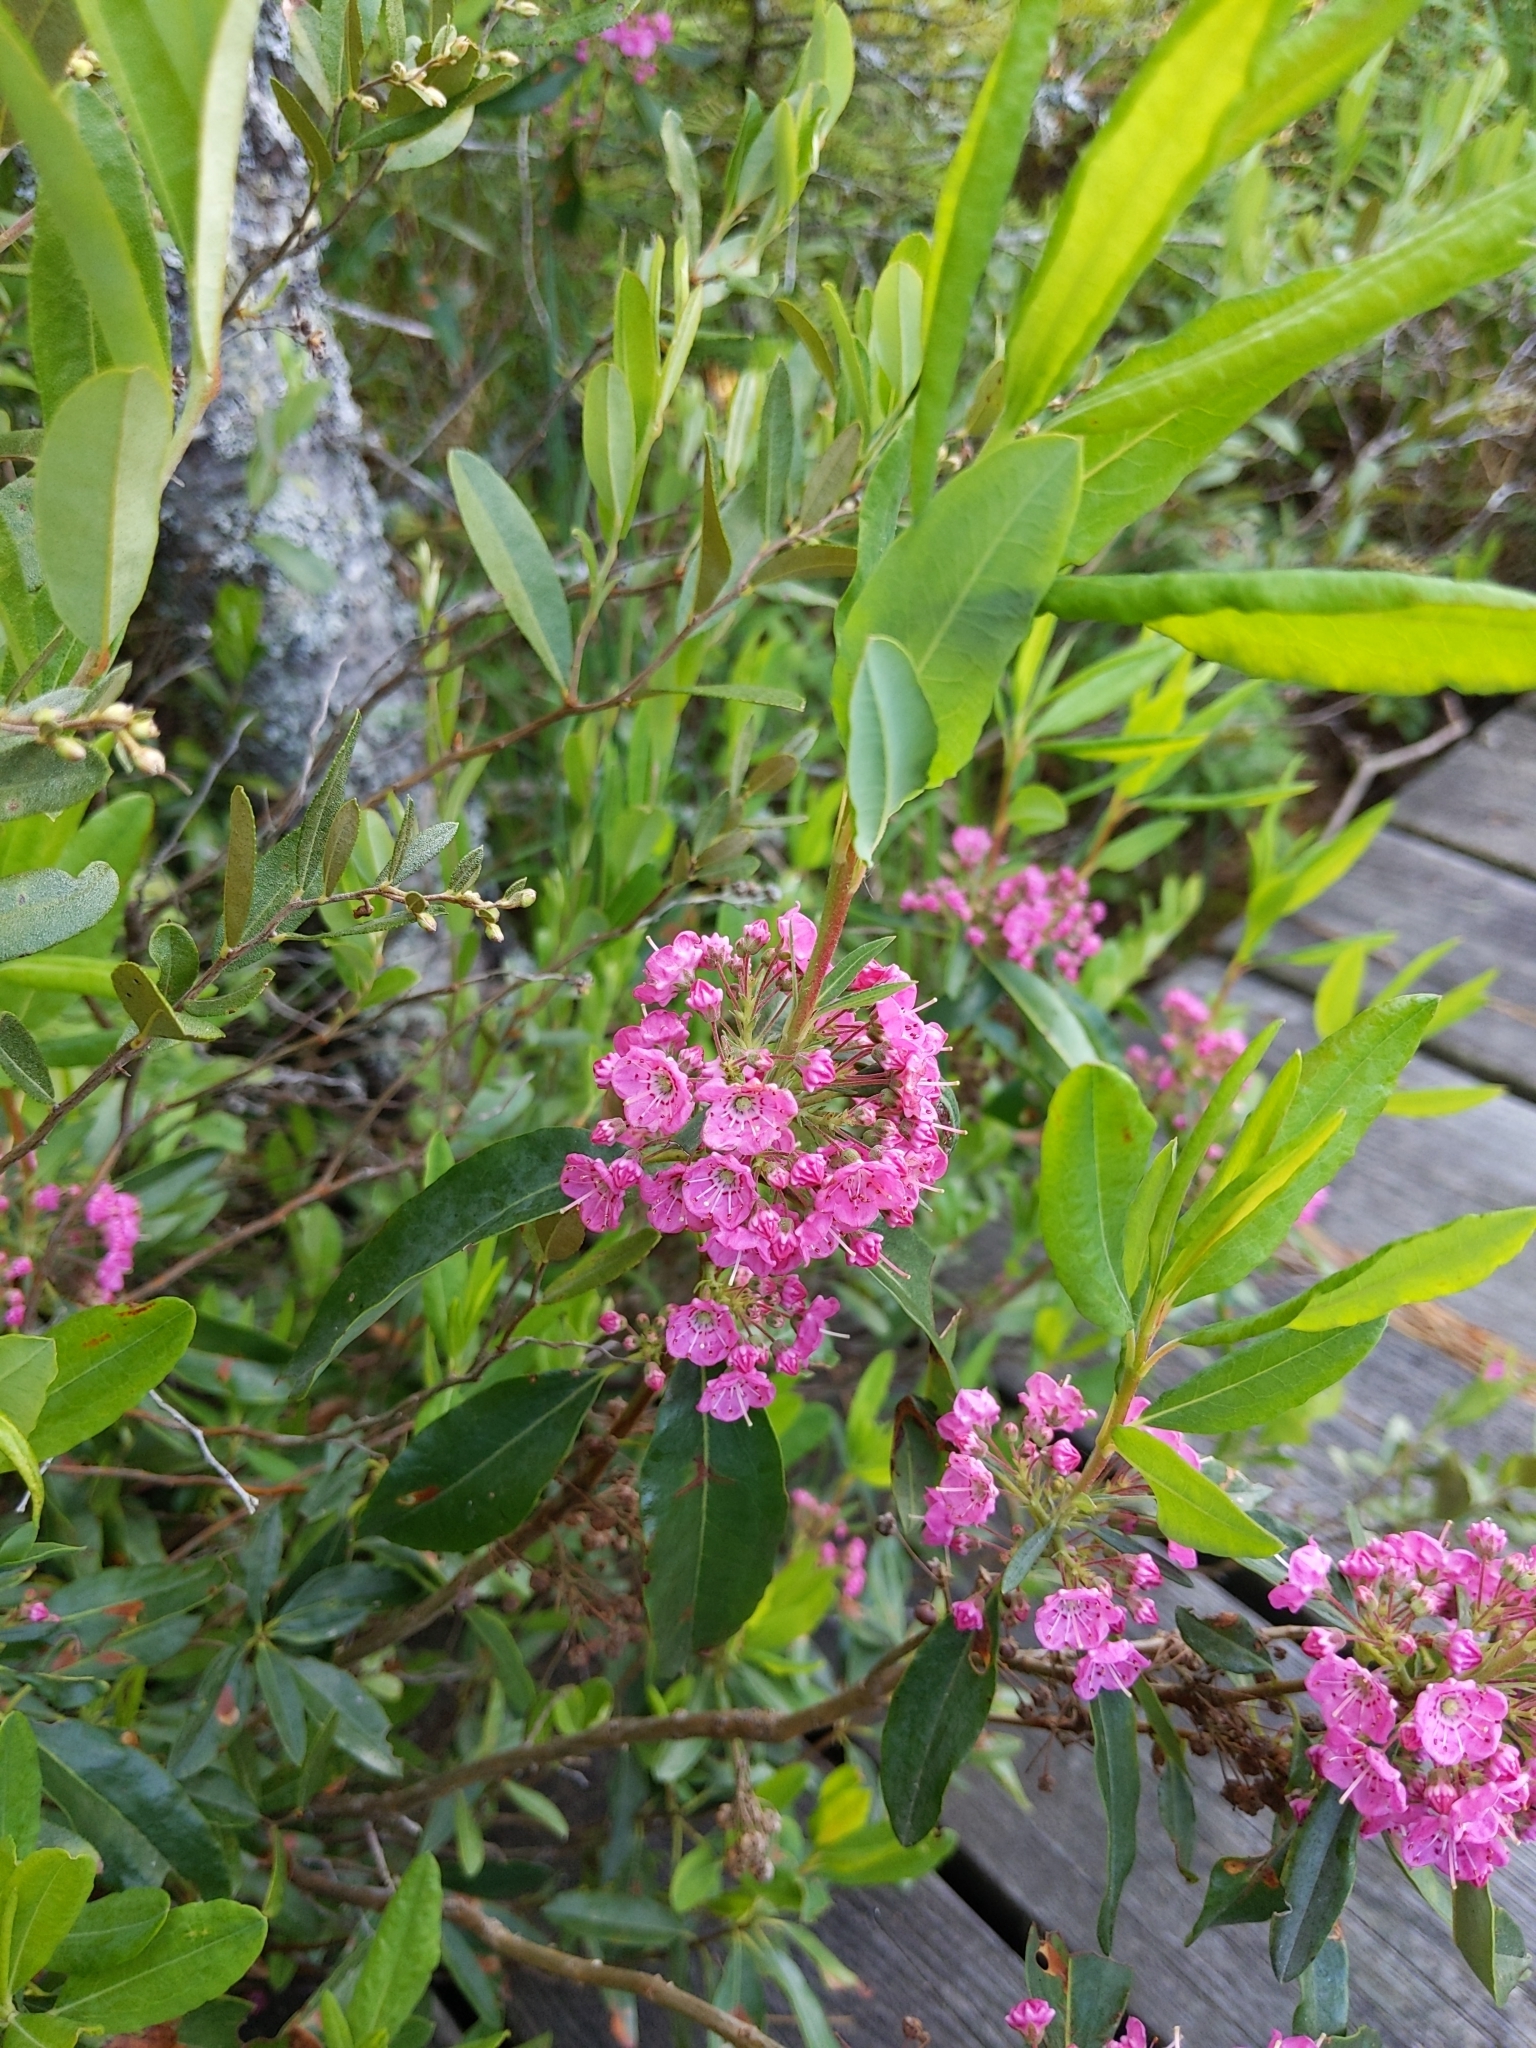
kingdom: Plantae
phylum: Tracheophyta
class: Magnoliopsida
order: Ericales
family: Ericaceae
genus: Kalmia
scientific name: Kalmia angustifolia
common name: Sheep-laurel
